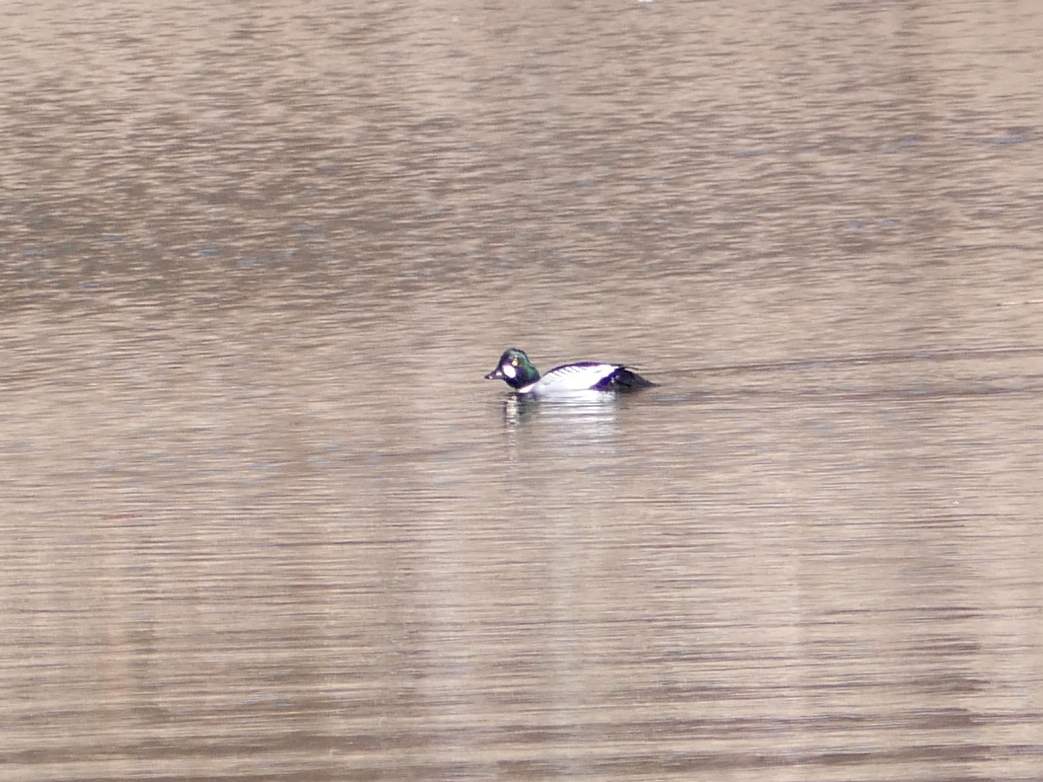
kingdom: Animalia
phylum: Chordata
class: Aves
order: Anseriformes
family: Anatidae
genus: Bucephala
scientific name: Bucephala clangula
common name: Common goldeneye
